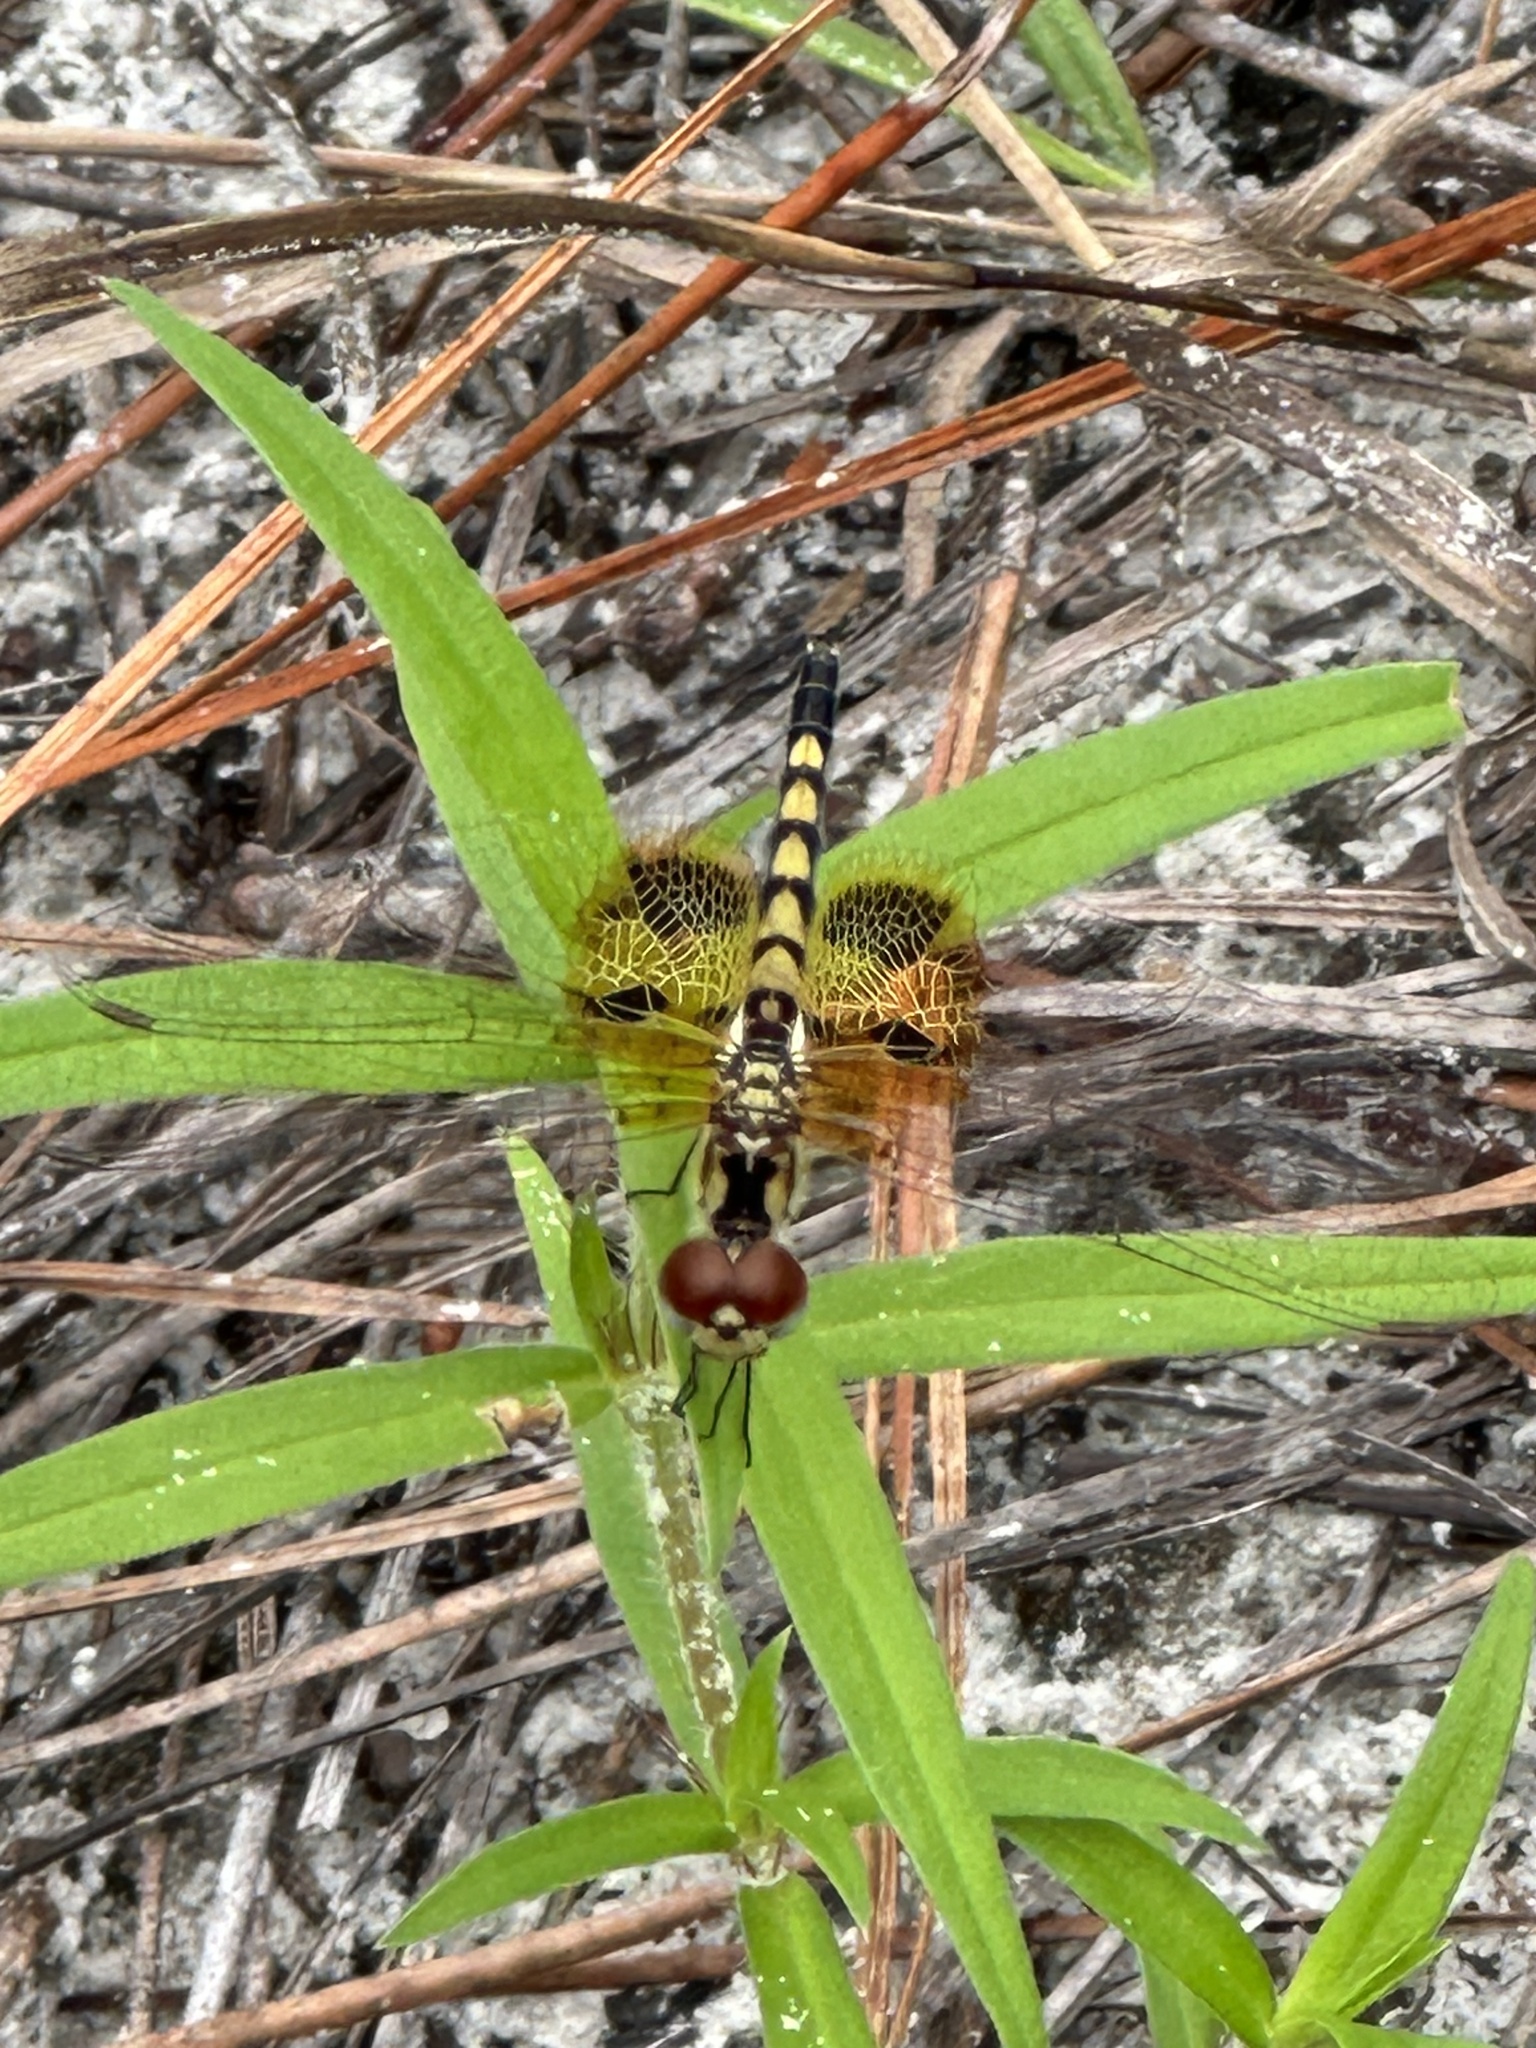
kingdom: Animalia
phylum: Arthropoda
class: Insecta
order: Odonata
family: Libellulidae
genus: Celithemis
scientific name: Celithemis amanda
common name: Amanda's pennant
